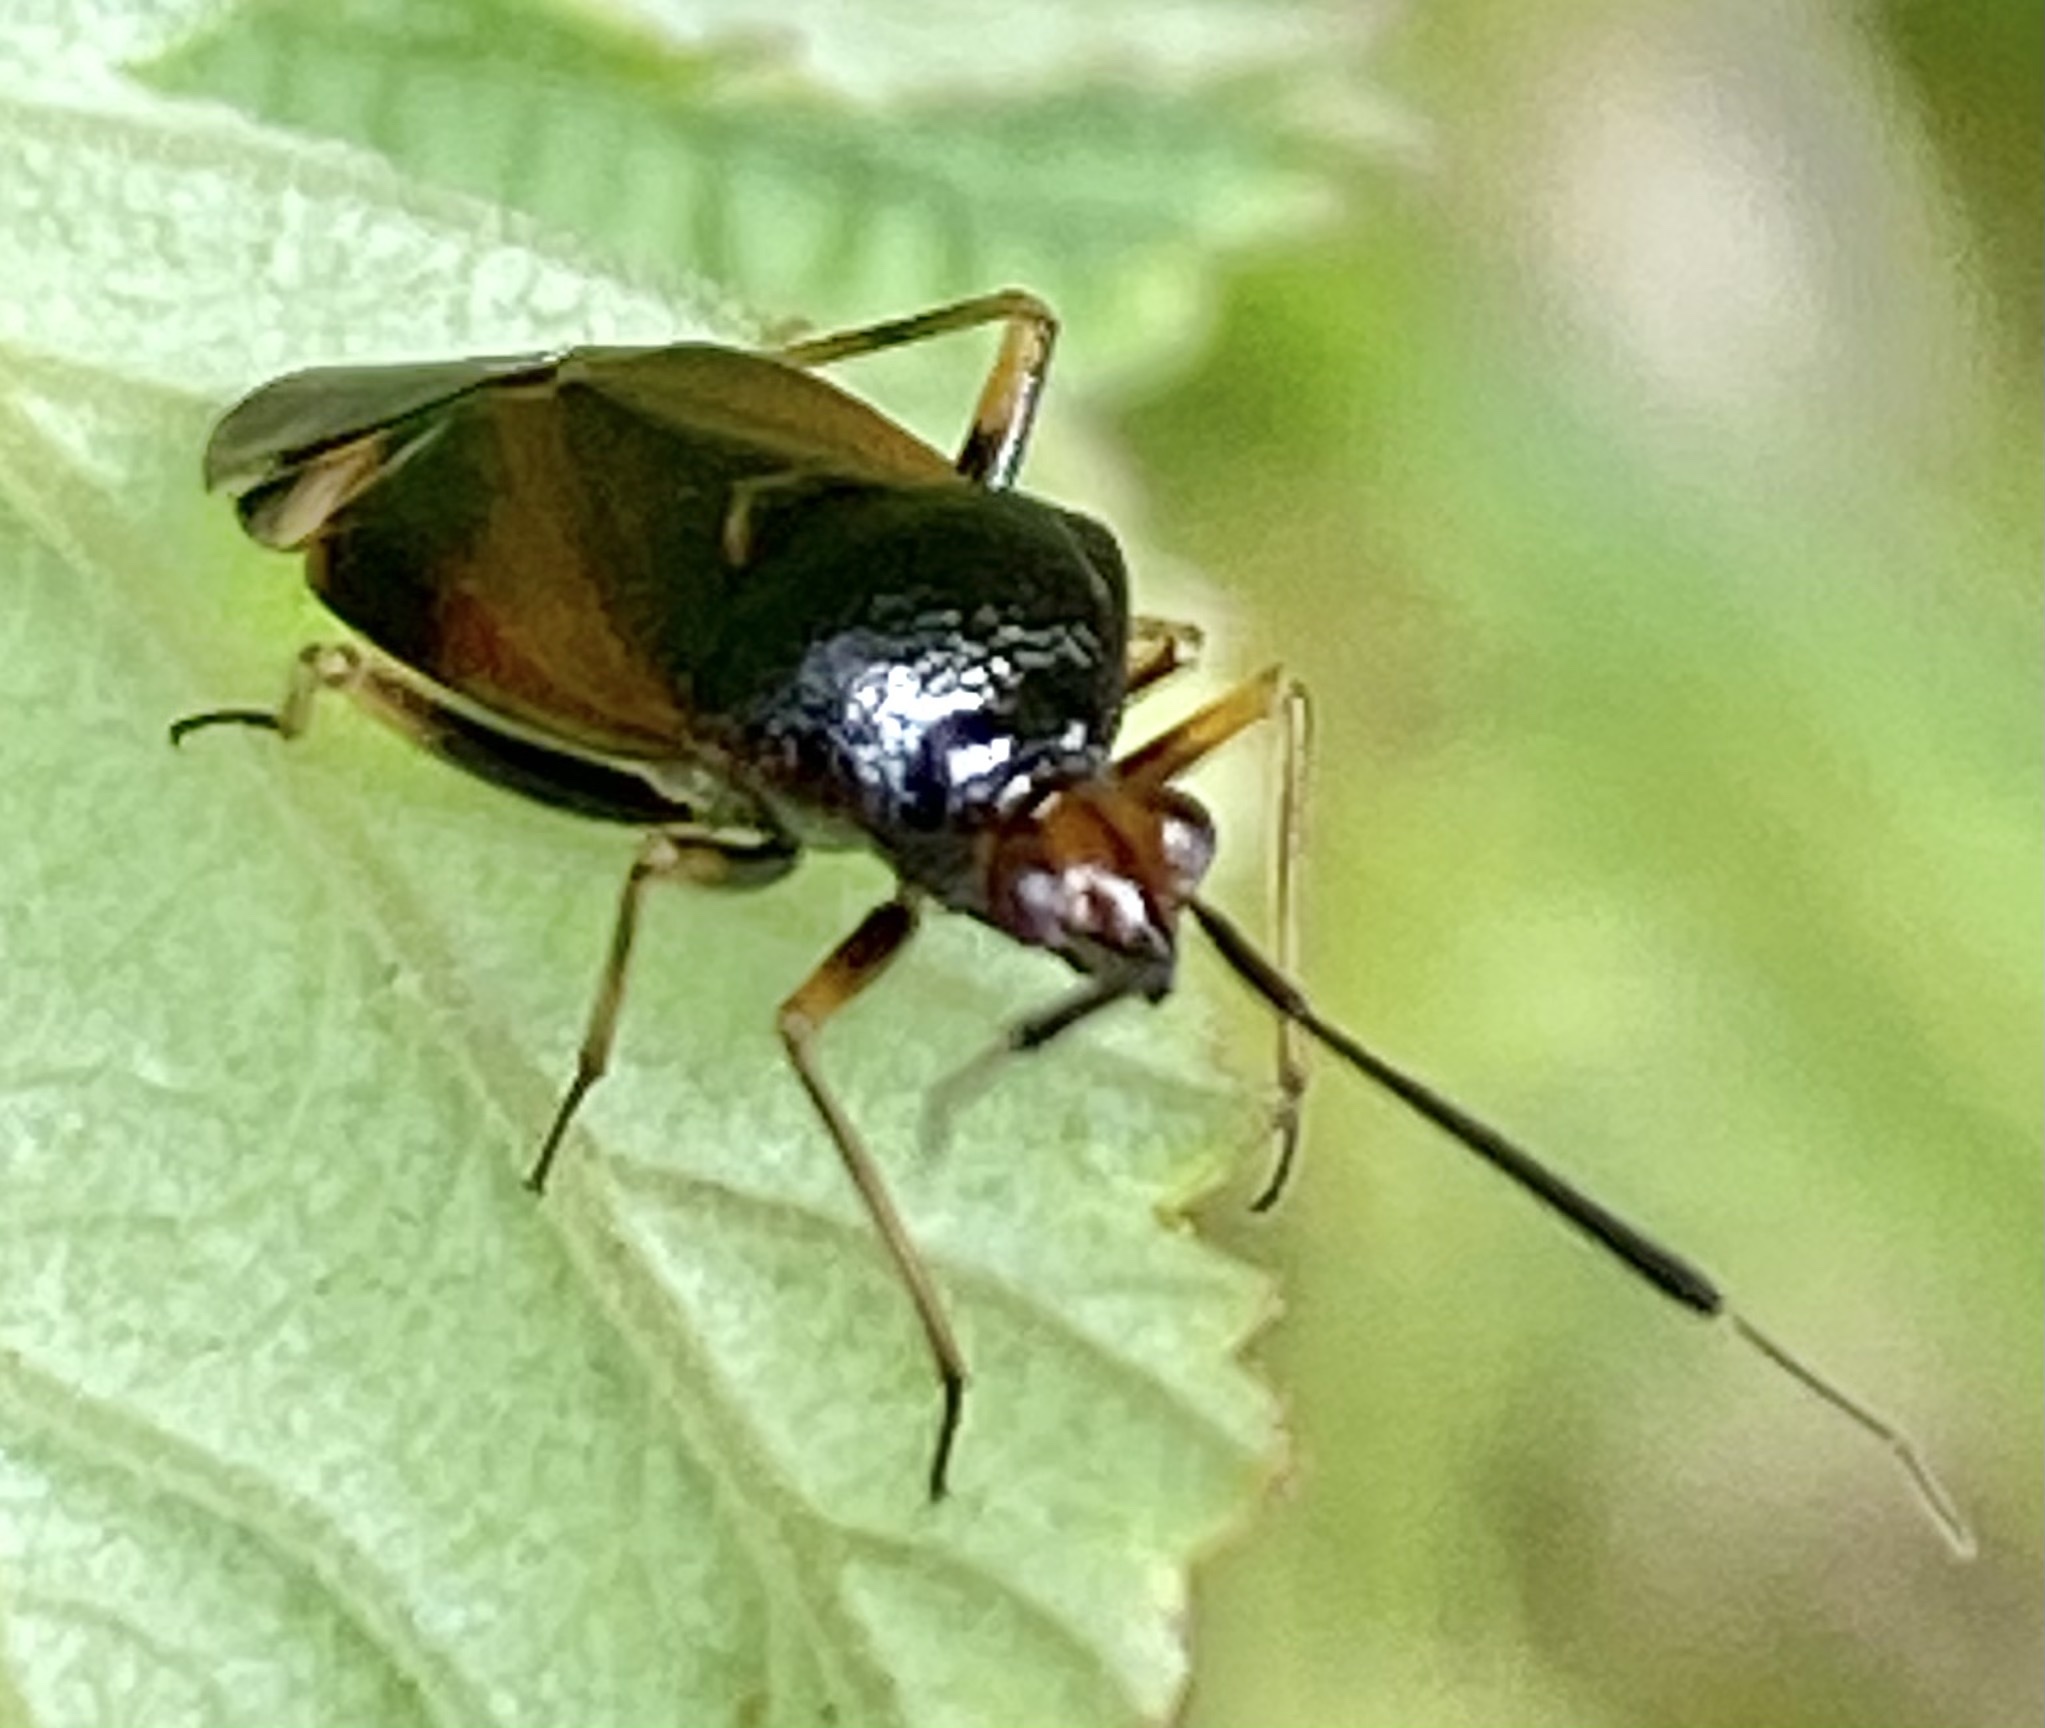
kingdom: Animalia
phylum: Arthropoda
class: Insecta
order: Hemiptera
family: Miridae
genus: Deraeocoris
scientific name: Deraeocoris ruber
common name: Plant bug
